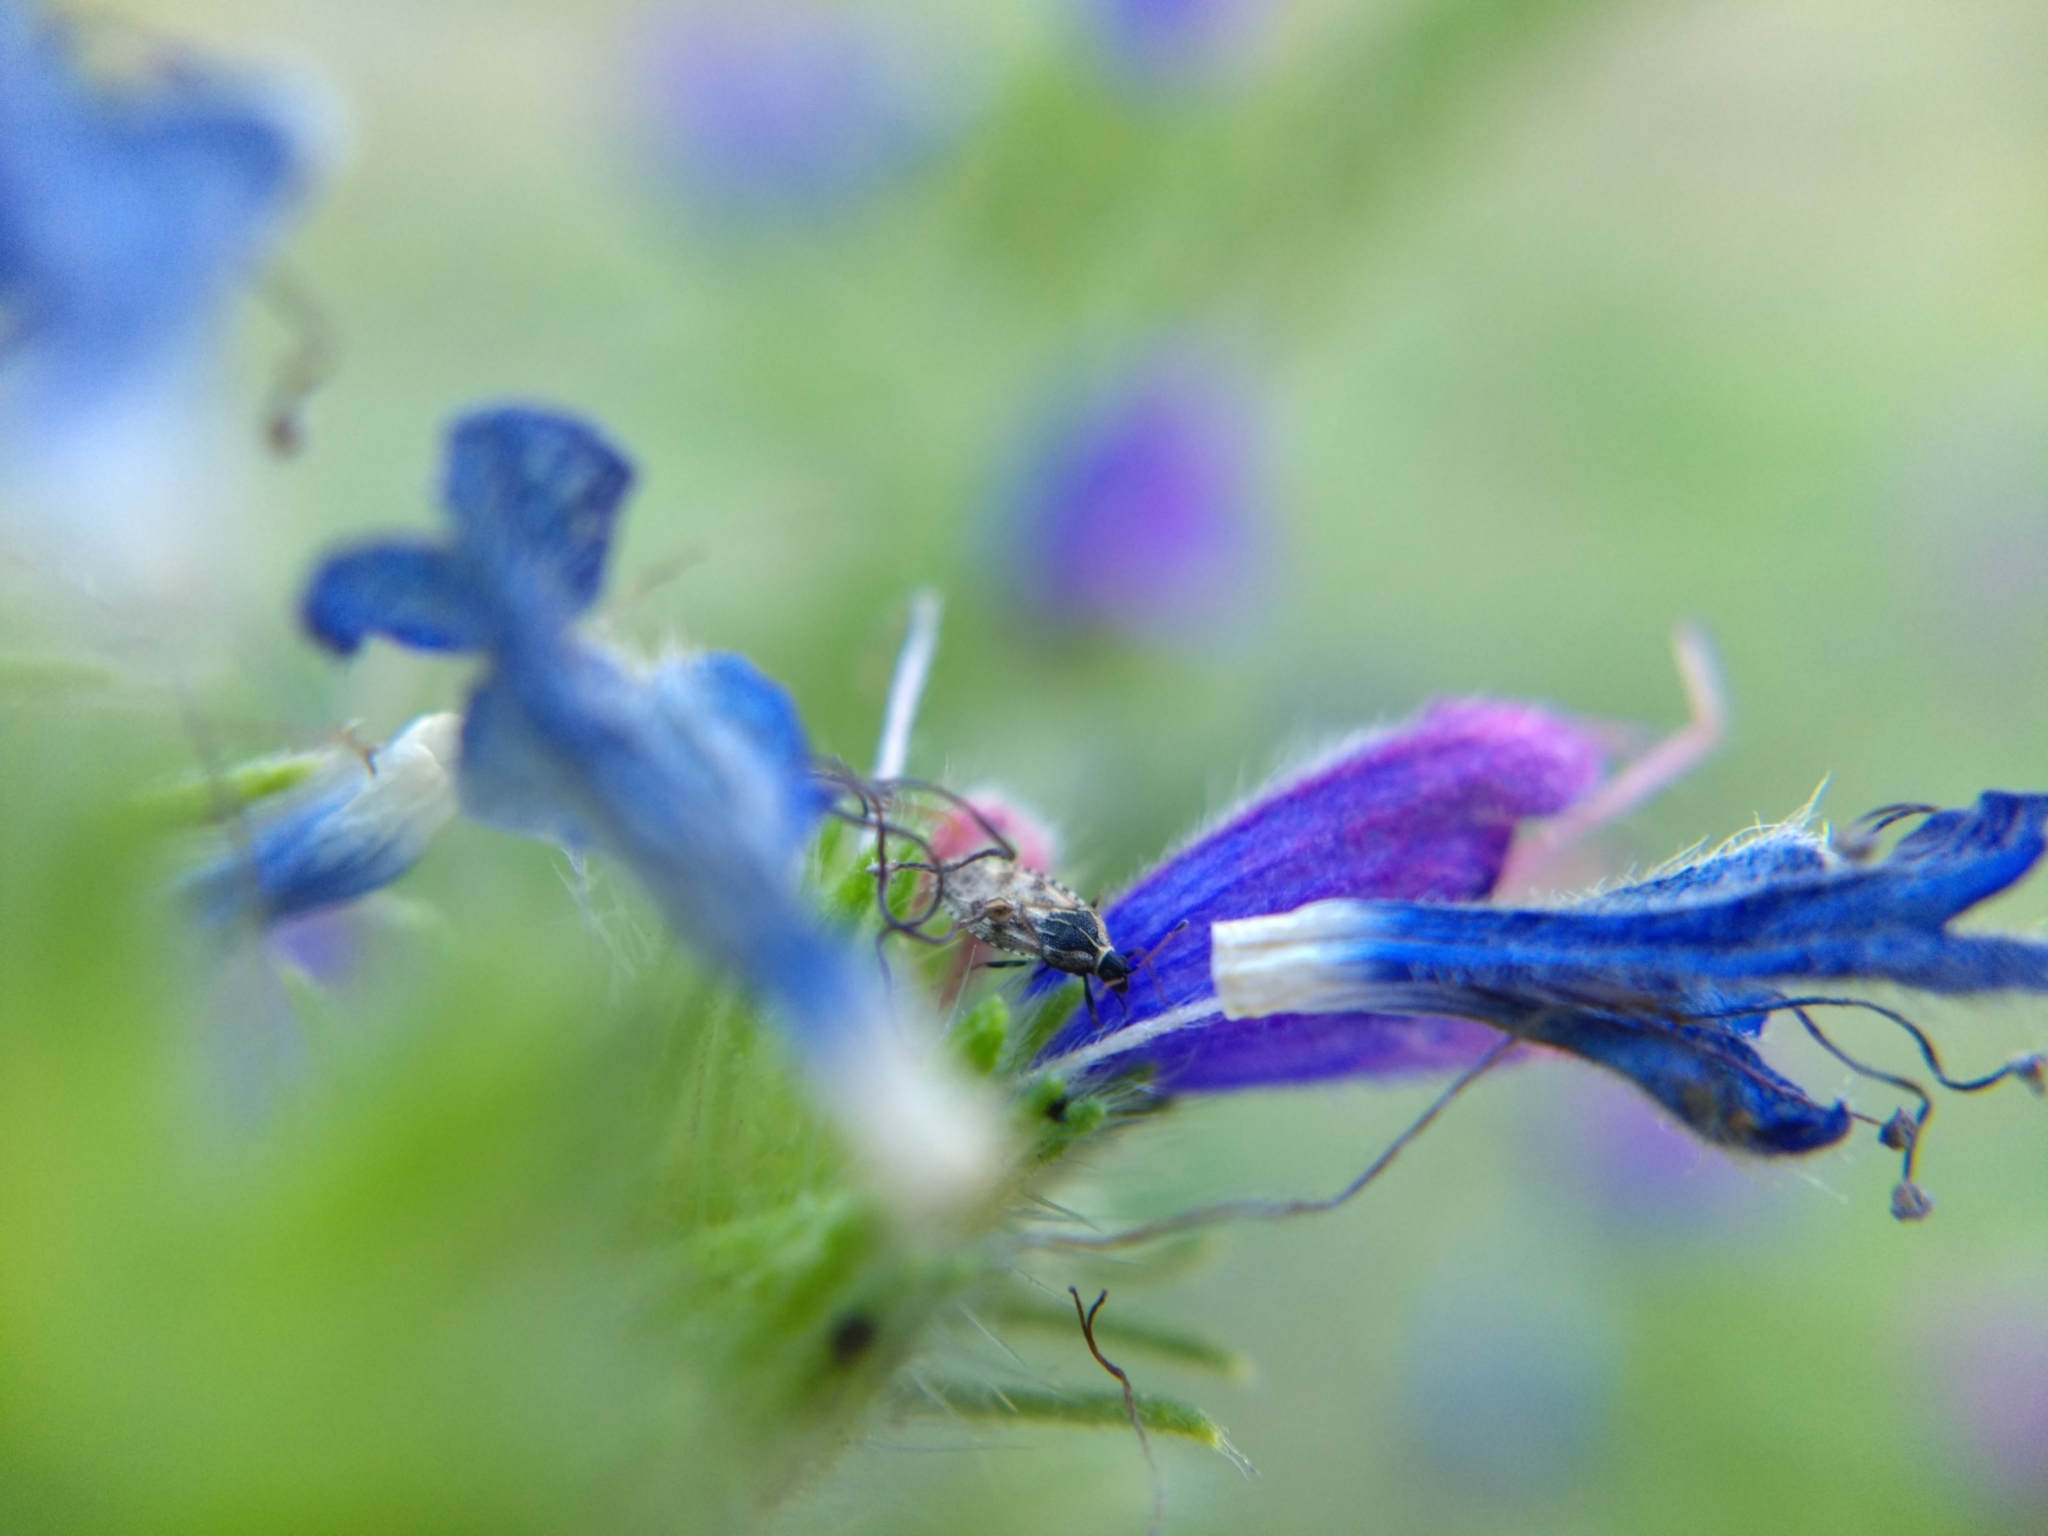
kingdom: Animalia
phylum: Arthropoda
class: Insecta
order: Hemiptera
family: Tingidae
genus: Dictyla
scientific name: Dictyla echii
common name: Lace bug
